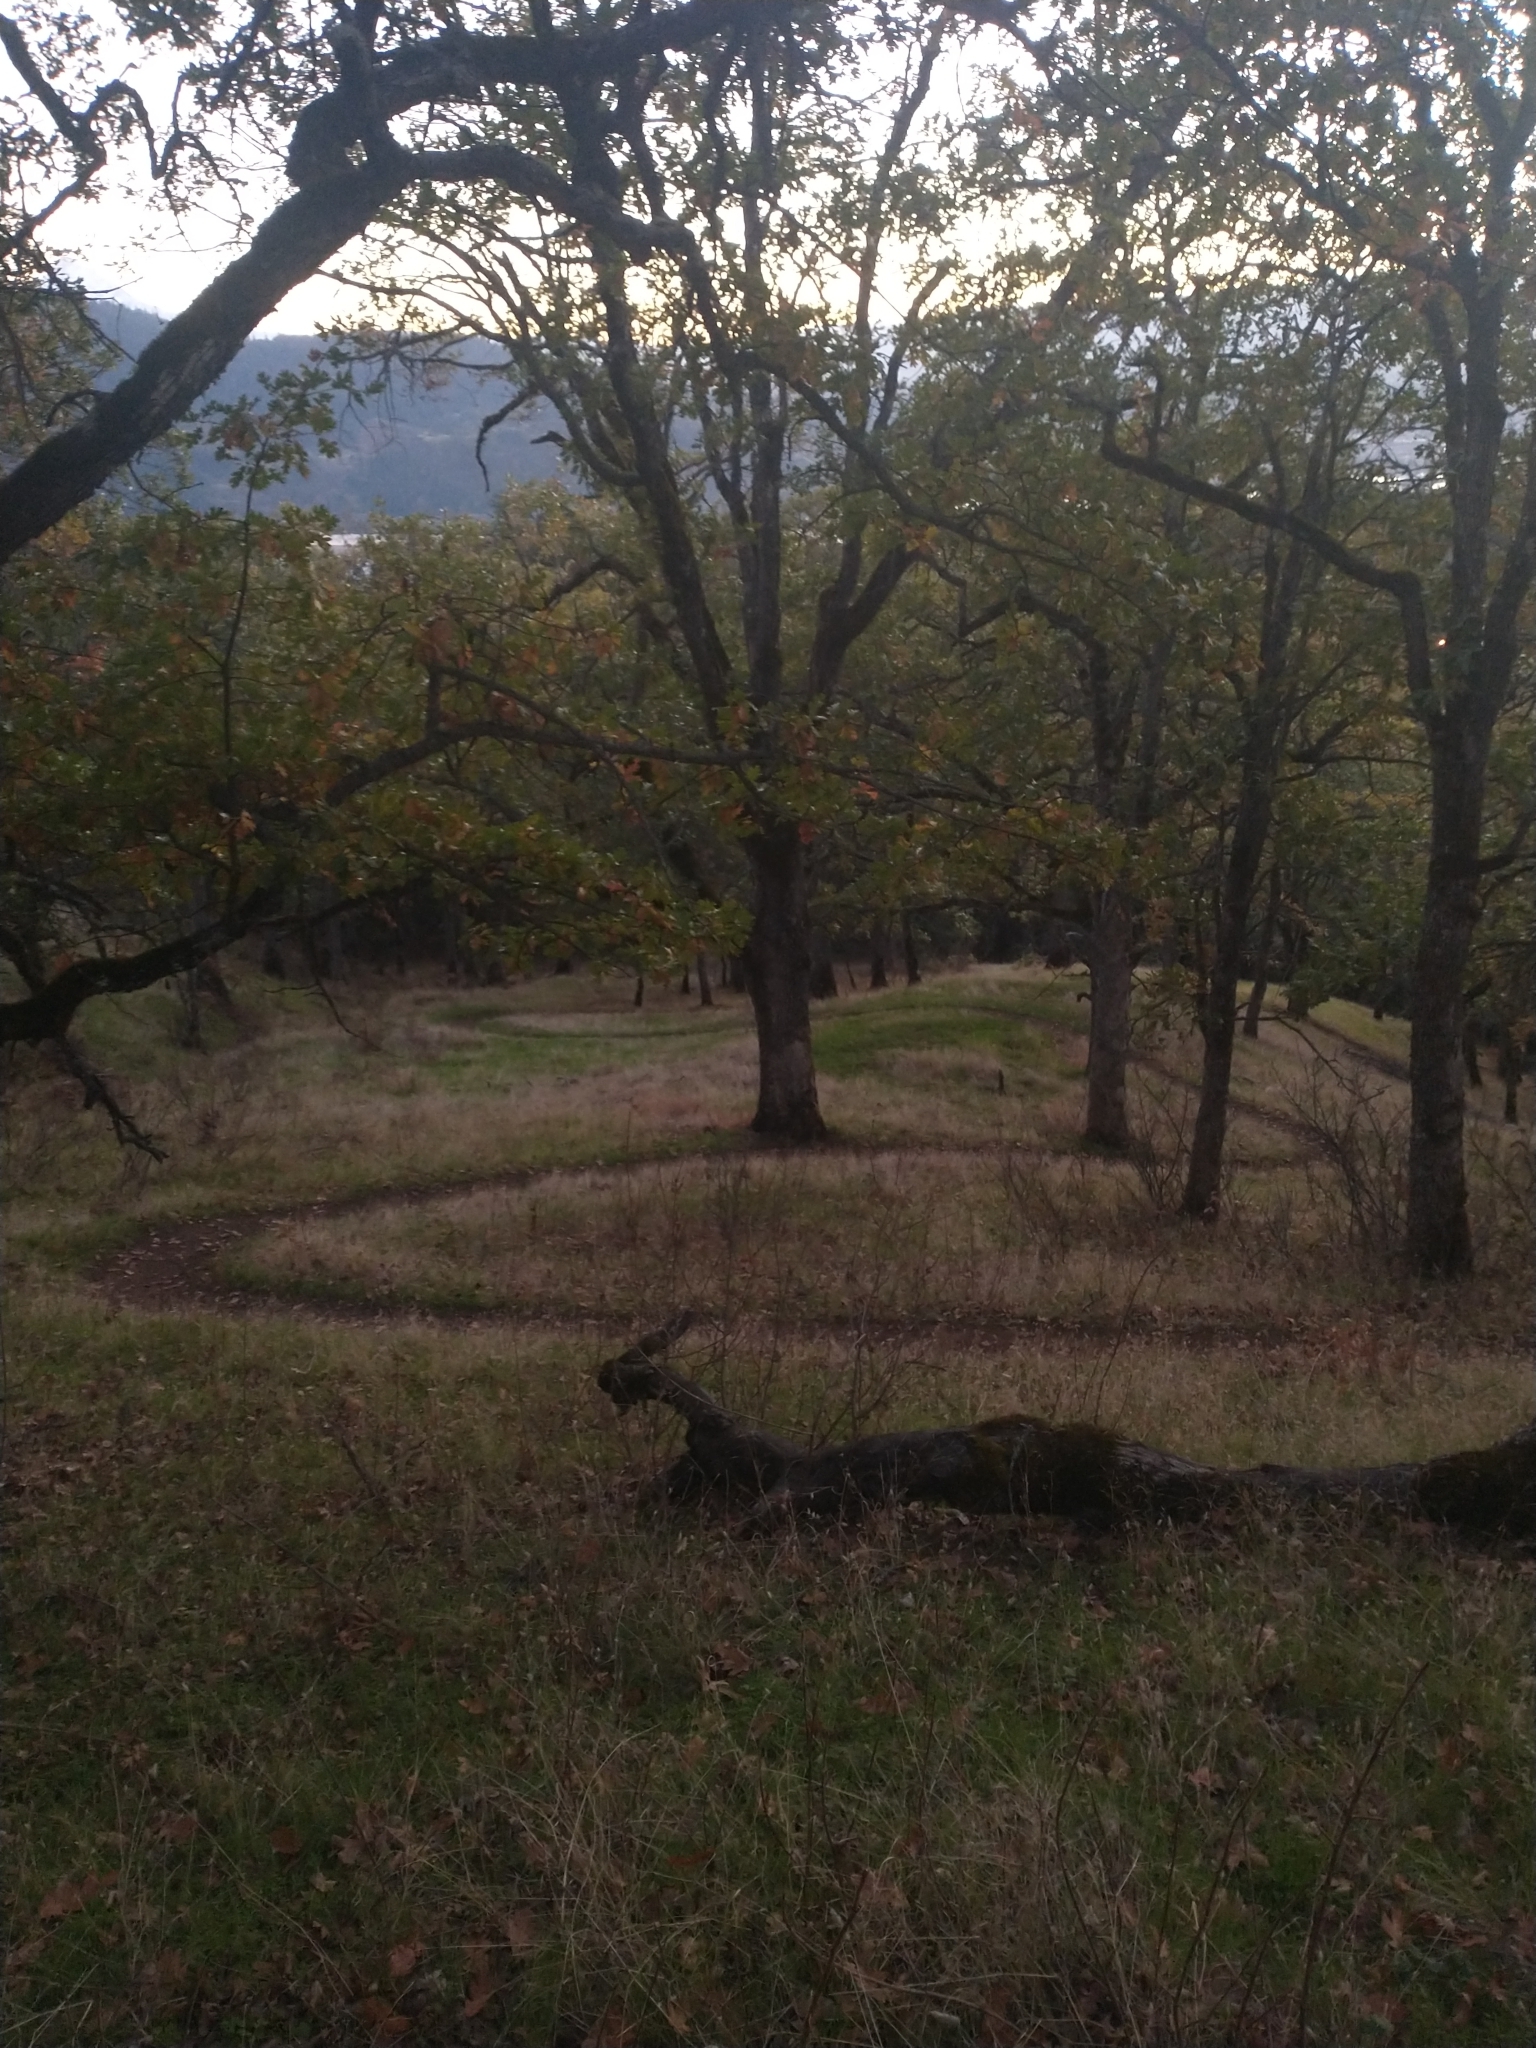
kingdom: Plantae
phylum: Tracheophyta
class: Magnoliopsida
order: Fagales
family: Fagaceae
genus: Quercus
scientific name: Quercus garryana
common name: Garry oak
